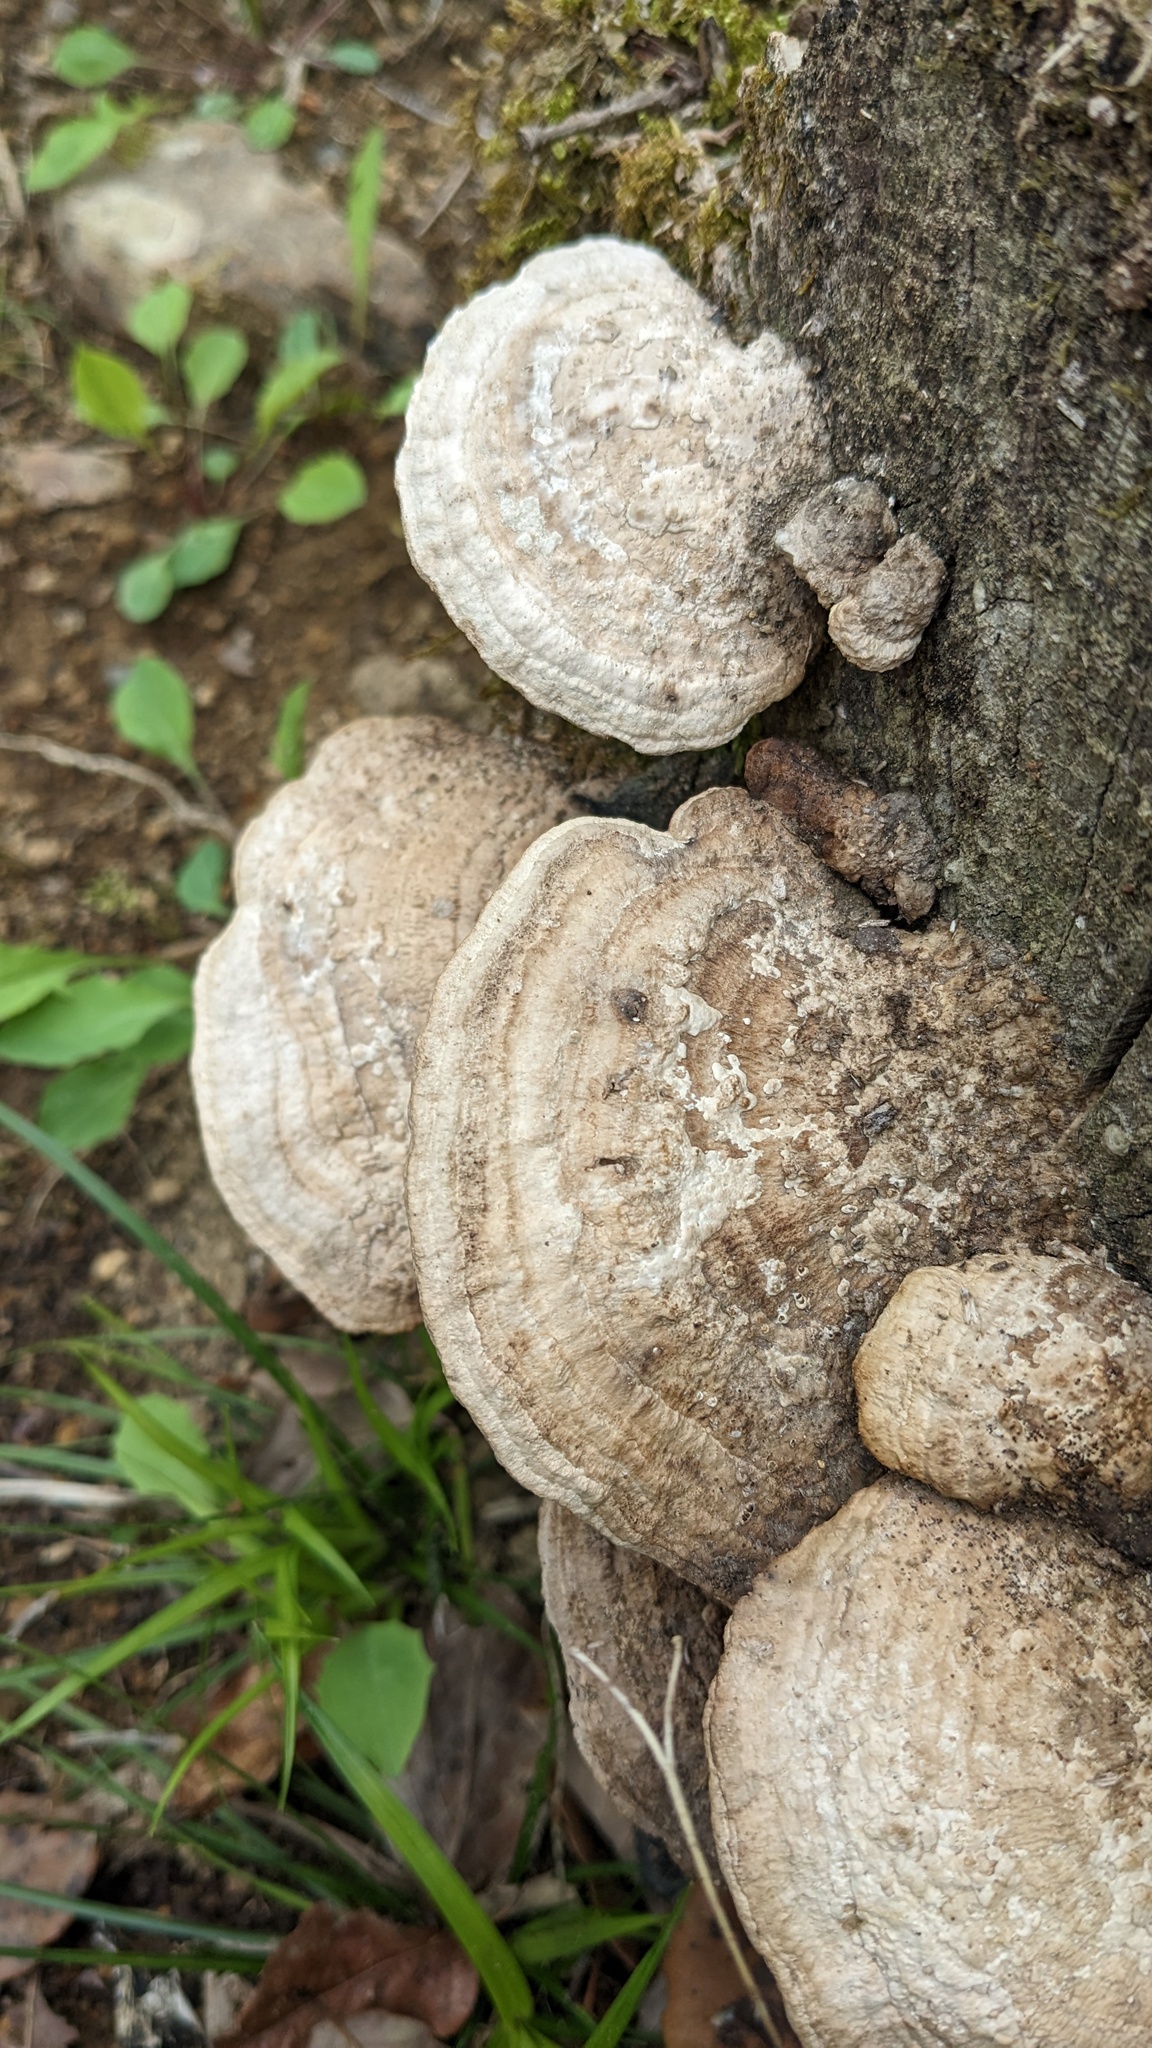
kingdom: Fungi
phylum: Basidiomycota
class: Agaricomycetes
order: Polyporales
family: Fomitopsidaceae
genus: Fomitopsis
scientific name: Fomitopsis
